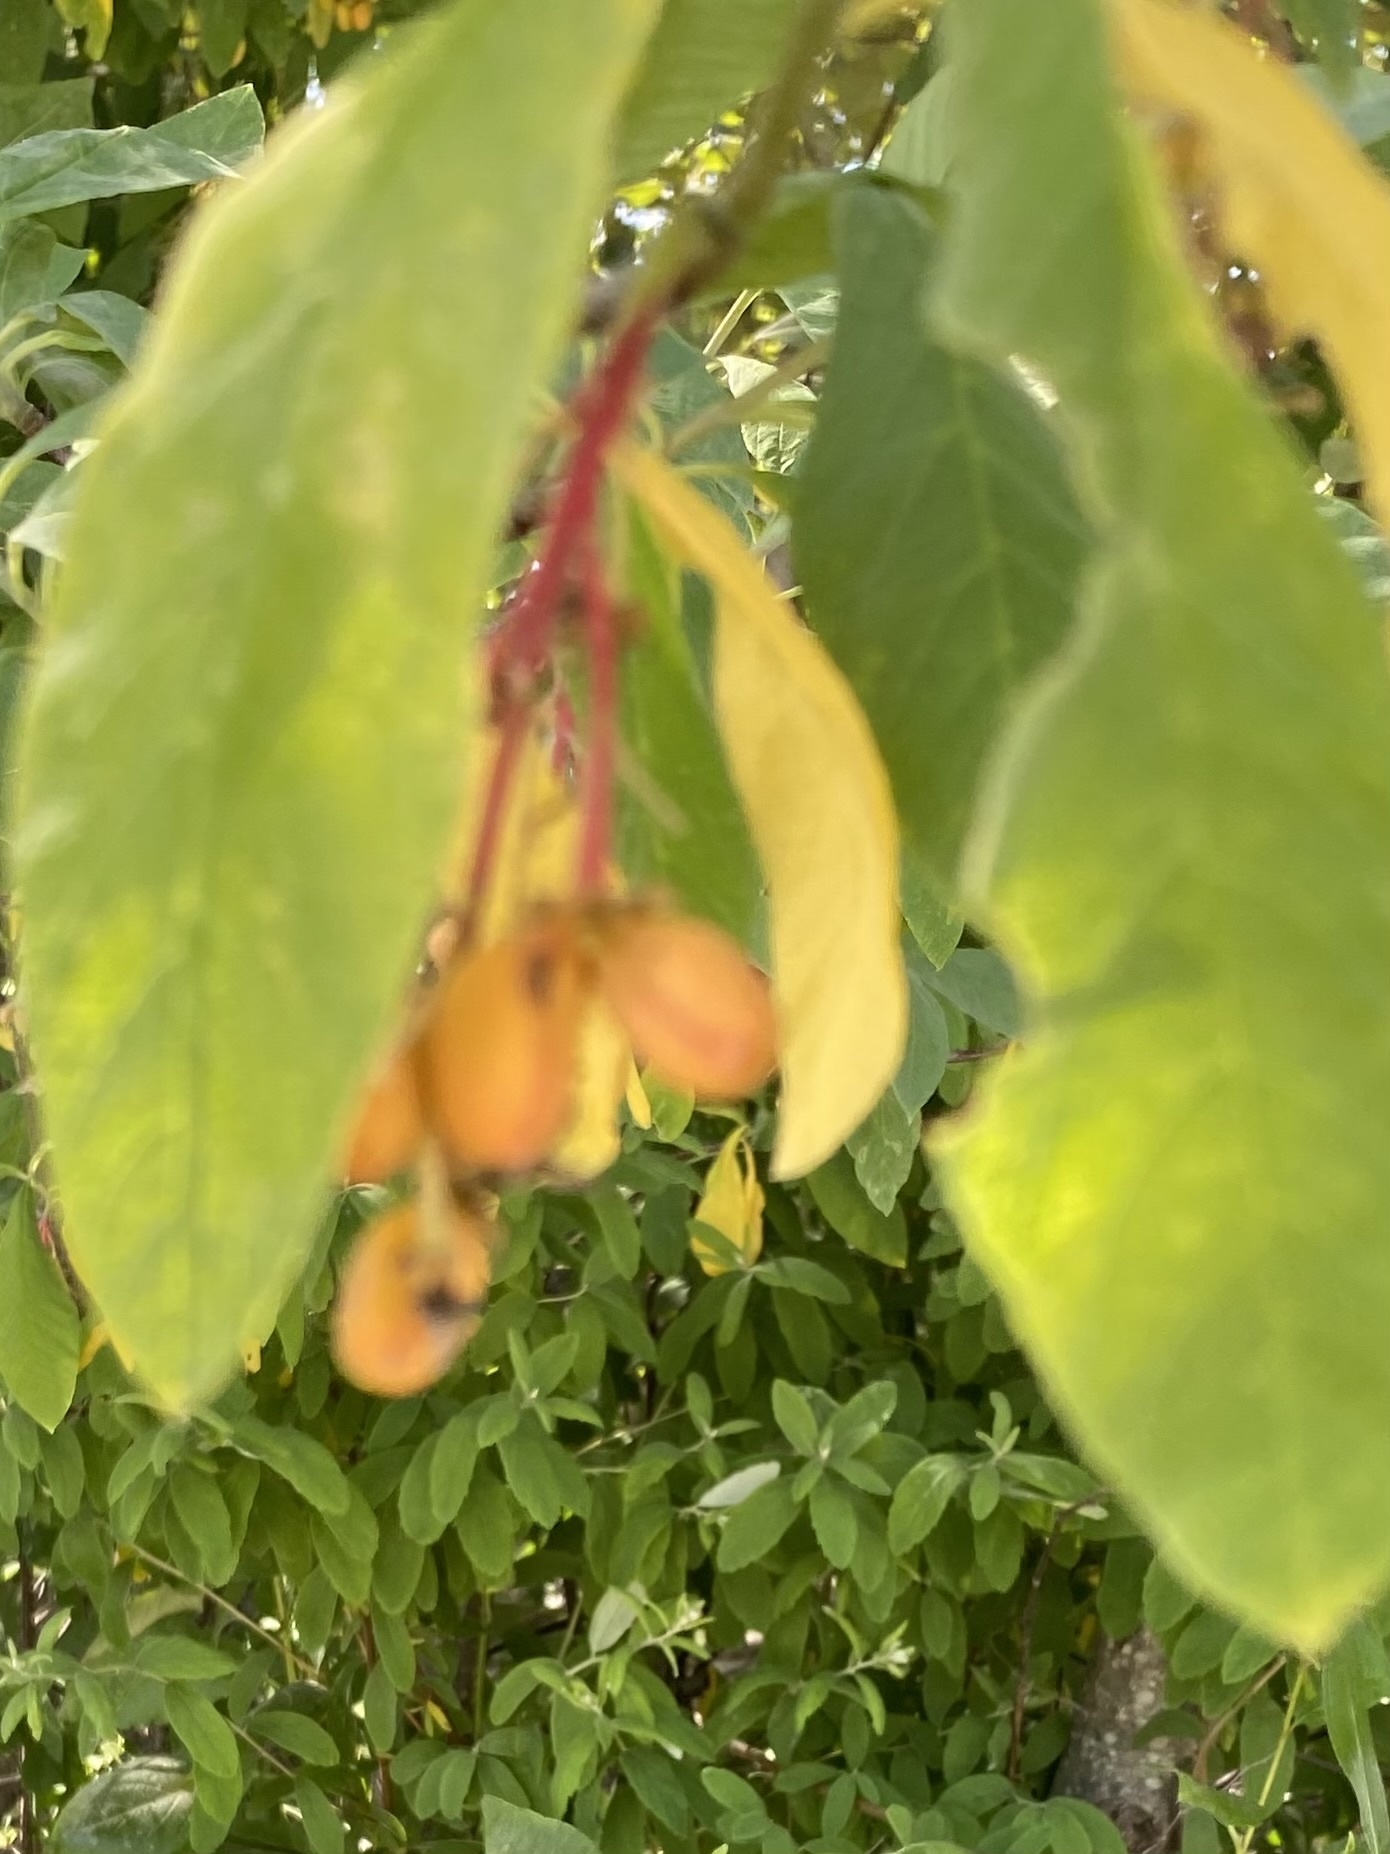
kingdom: Plantae
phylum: Tracheophyta
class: Magnoliopsida
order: Rosales
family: Rosaceae
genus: Oemleria
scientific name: Oemleria cerasiformis
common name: Osoberry
